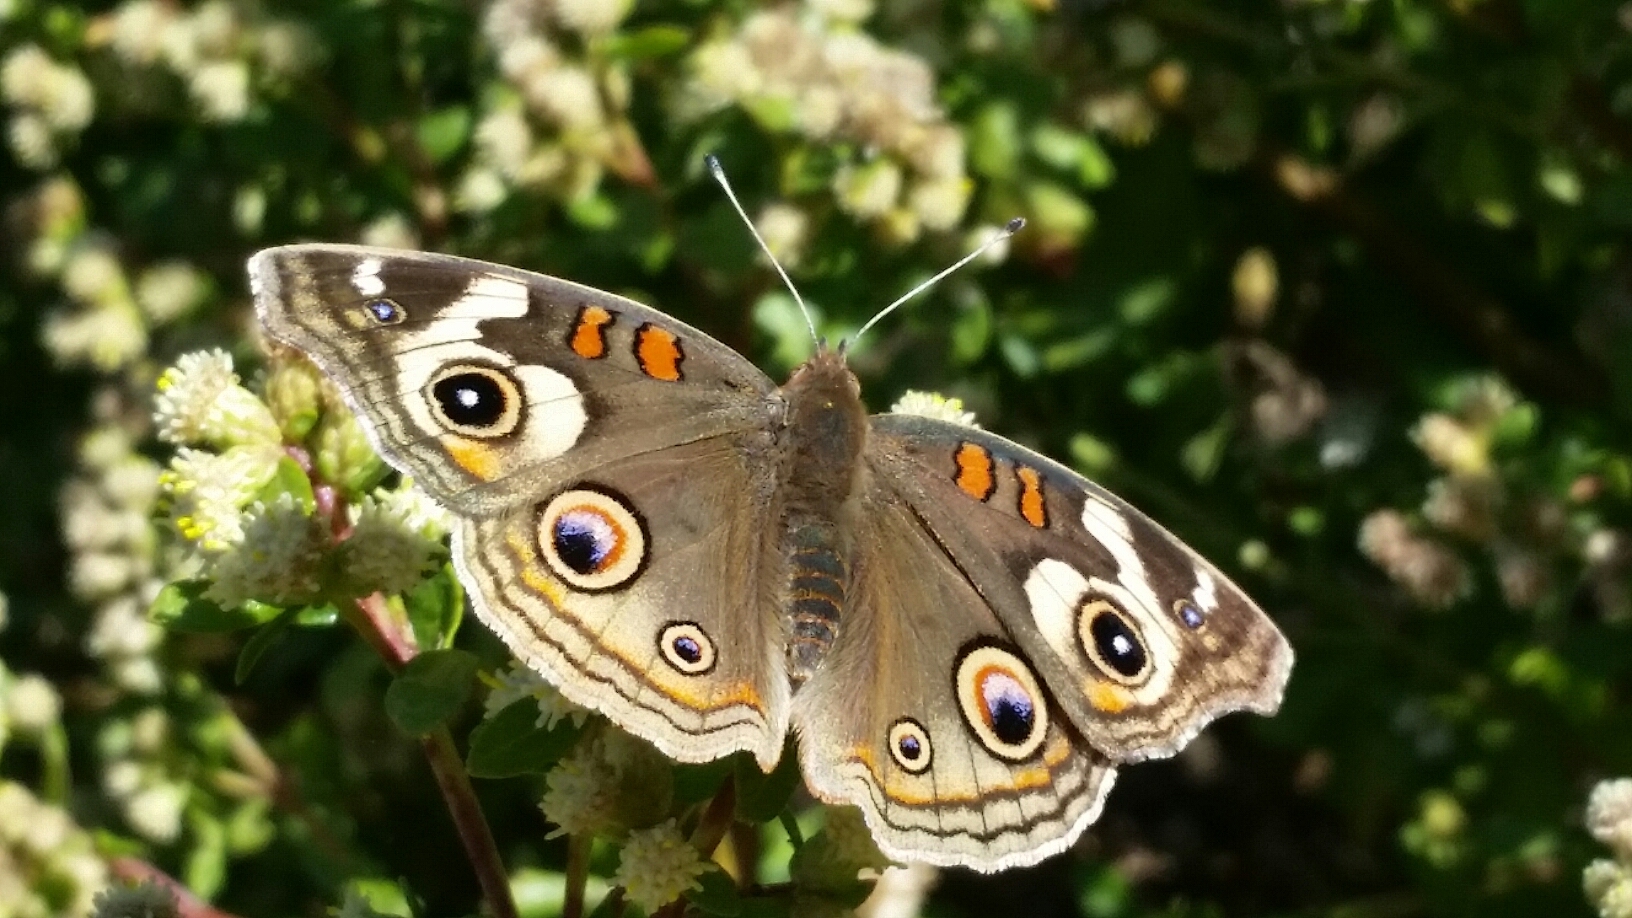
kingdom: Animalia
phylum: Arthropoda
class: Insecta
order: Lepidoptera
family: Nymphalidae
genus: Junonia
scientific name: Junonia grisea
